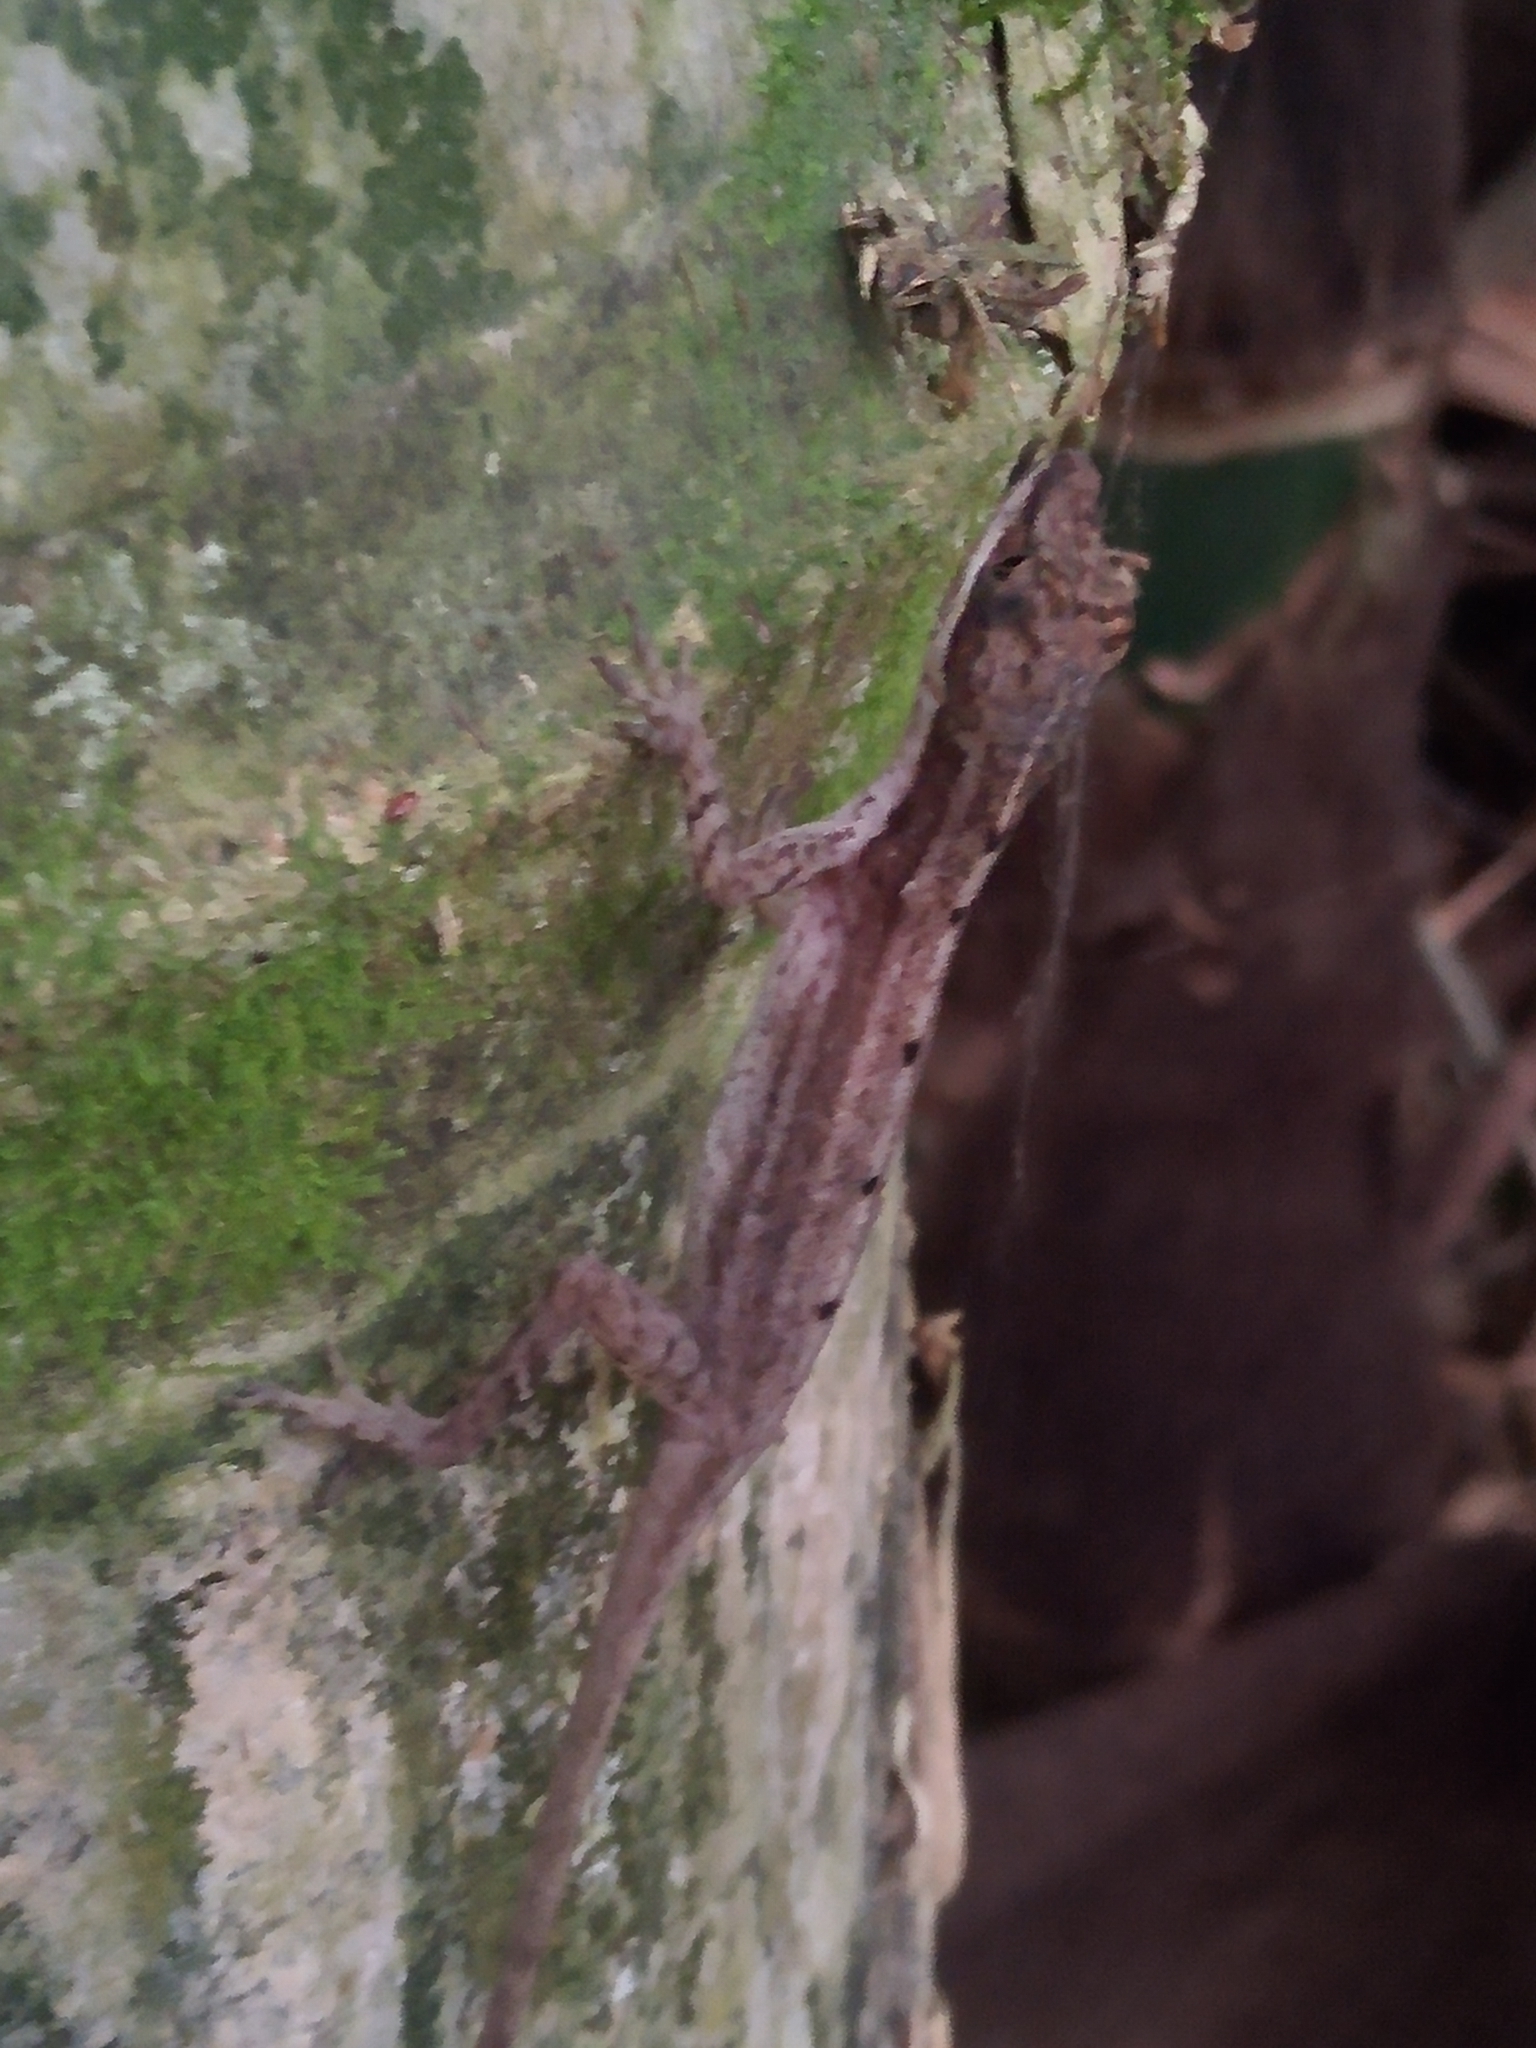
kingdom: Animalia
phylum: Chordata
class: Squamata
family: Dactyloidae
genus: Anolis
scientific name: Anolis limifrons
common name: Border anole
